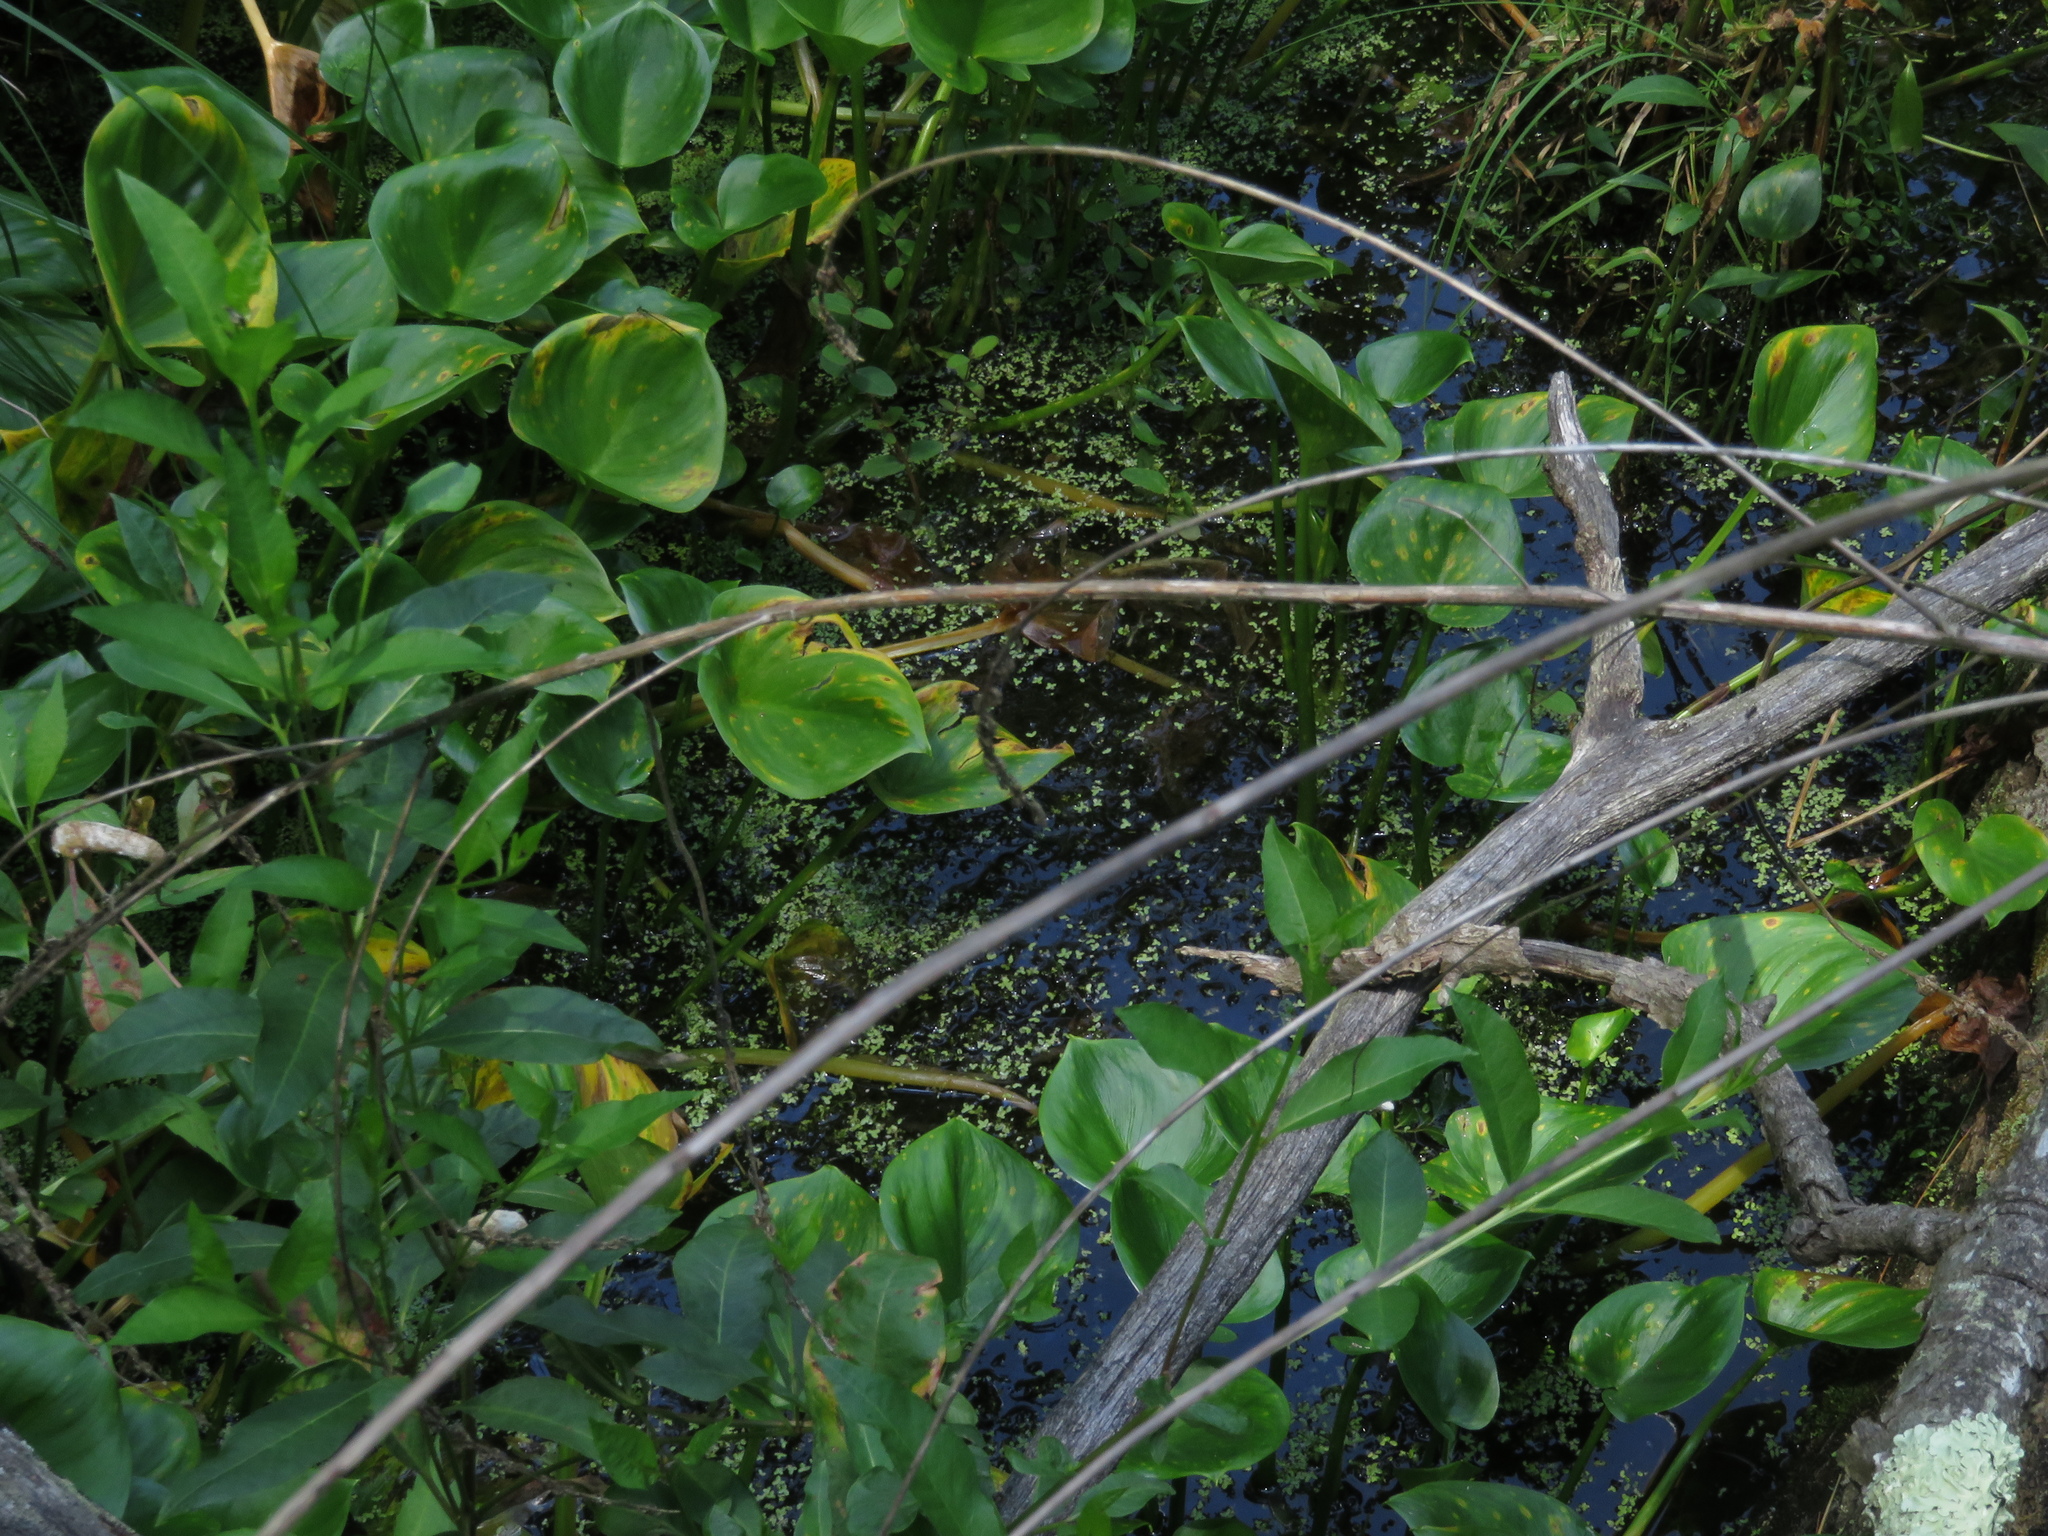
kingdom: Plantae
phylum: Tracheophyta
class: Liliopsida
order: Alismatales
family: Araceae
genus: Calla
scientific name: Calla palustris
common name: Bog arum
